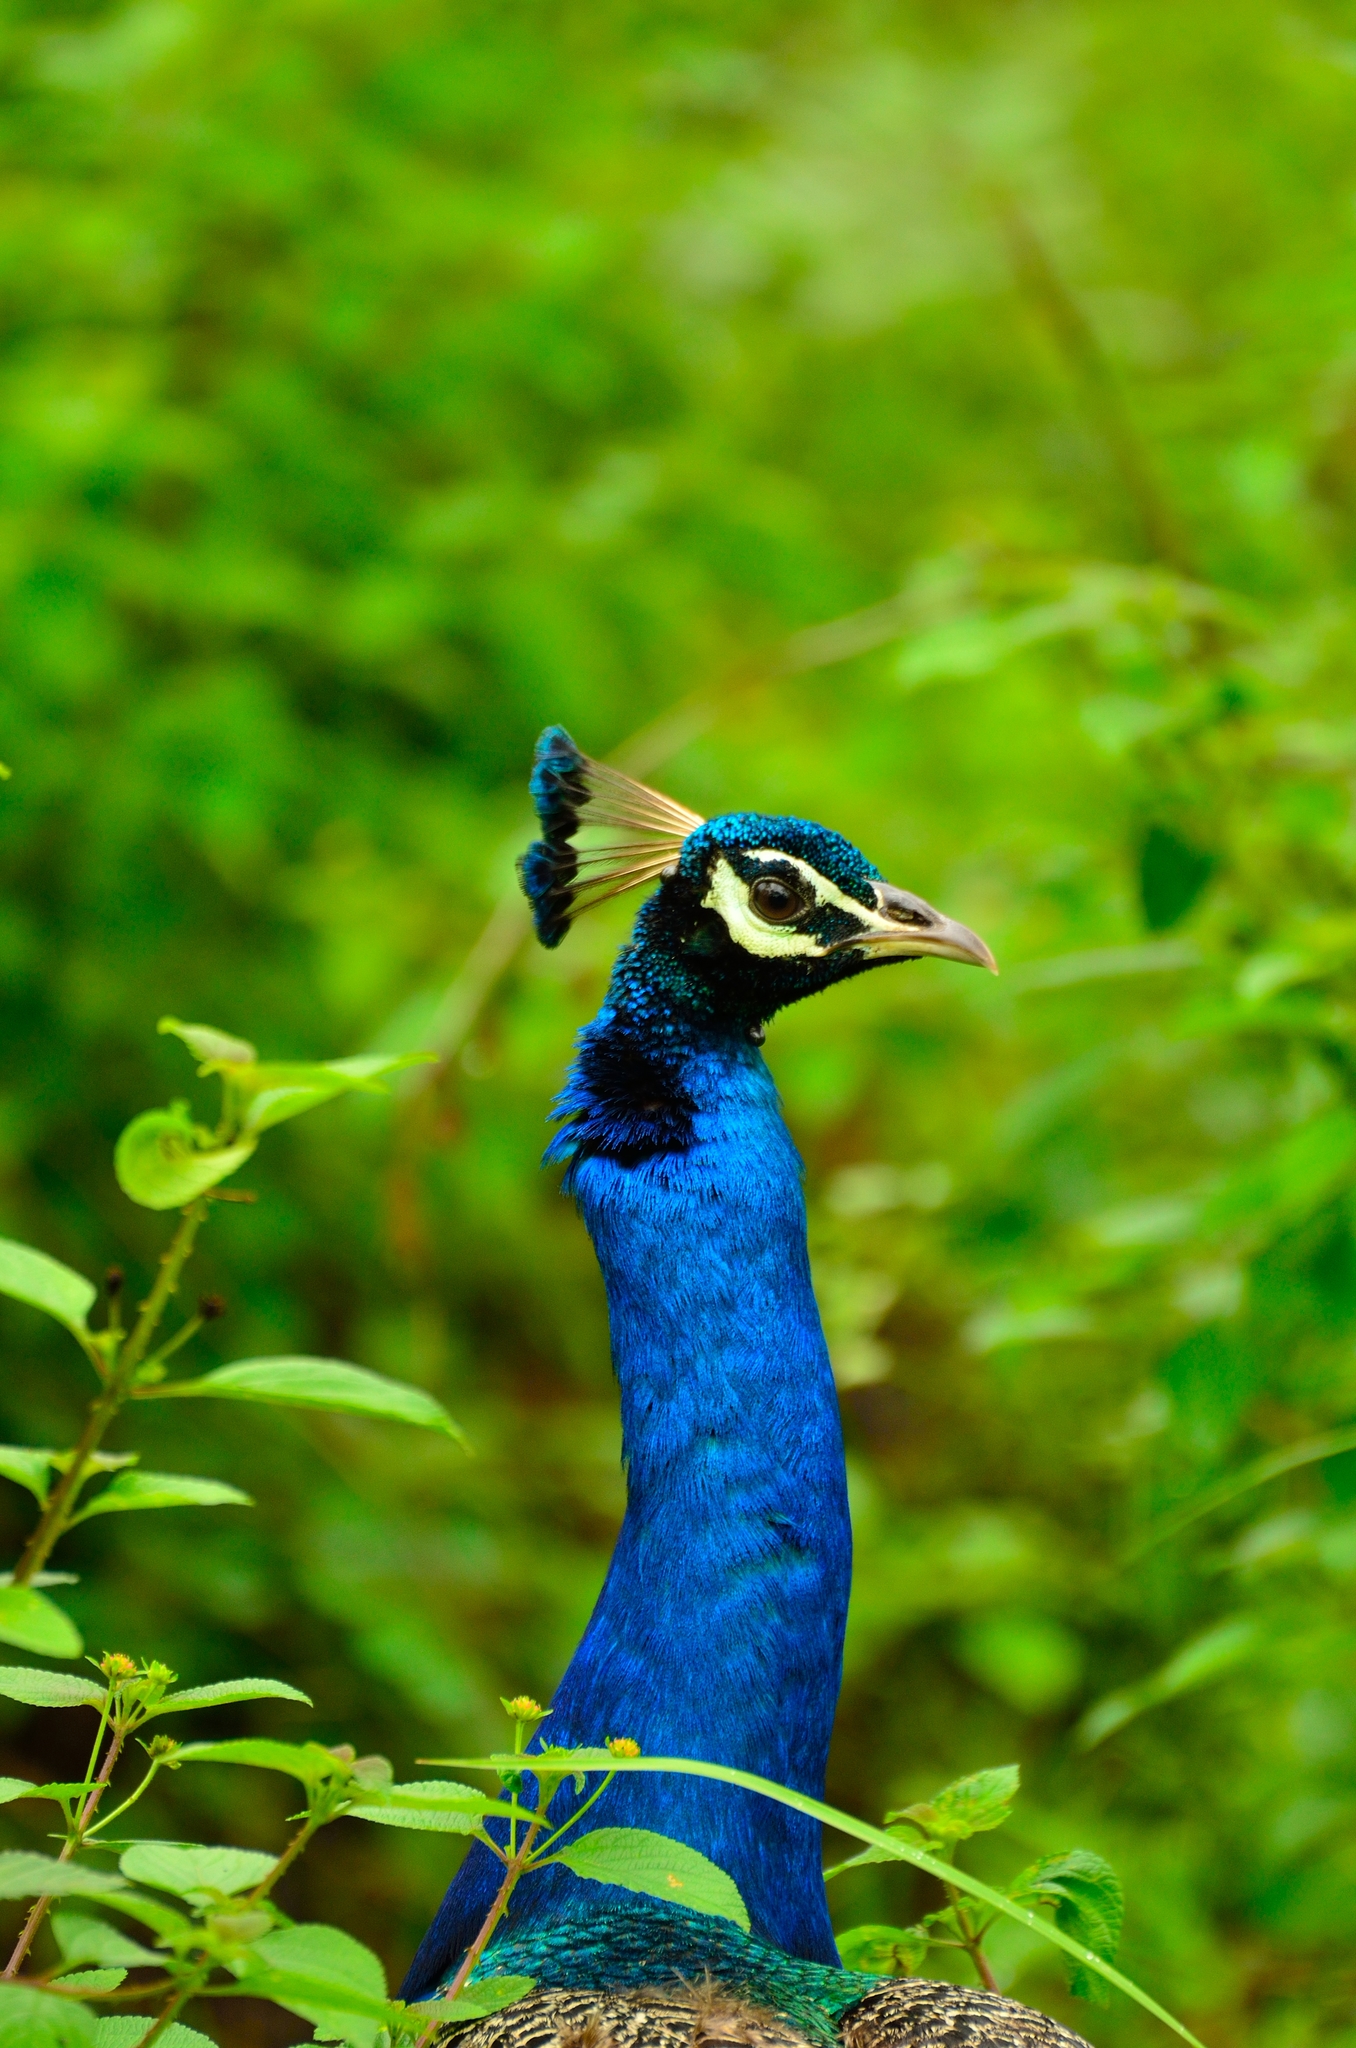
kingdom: Animalia
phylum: Chordata
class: Aves
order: Galliformes
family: Phasianidae
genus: Pavo
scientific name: Pavo cristatus
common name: Indian peafowl
